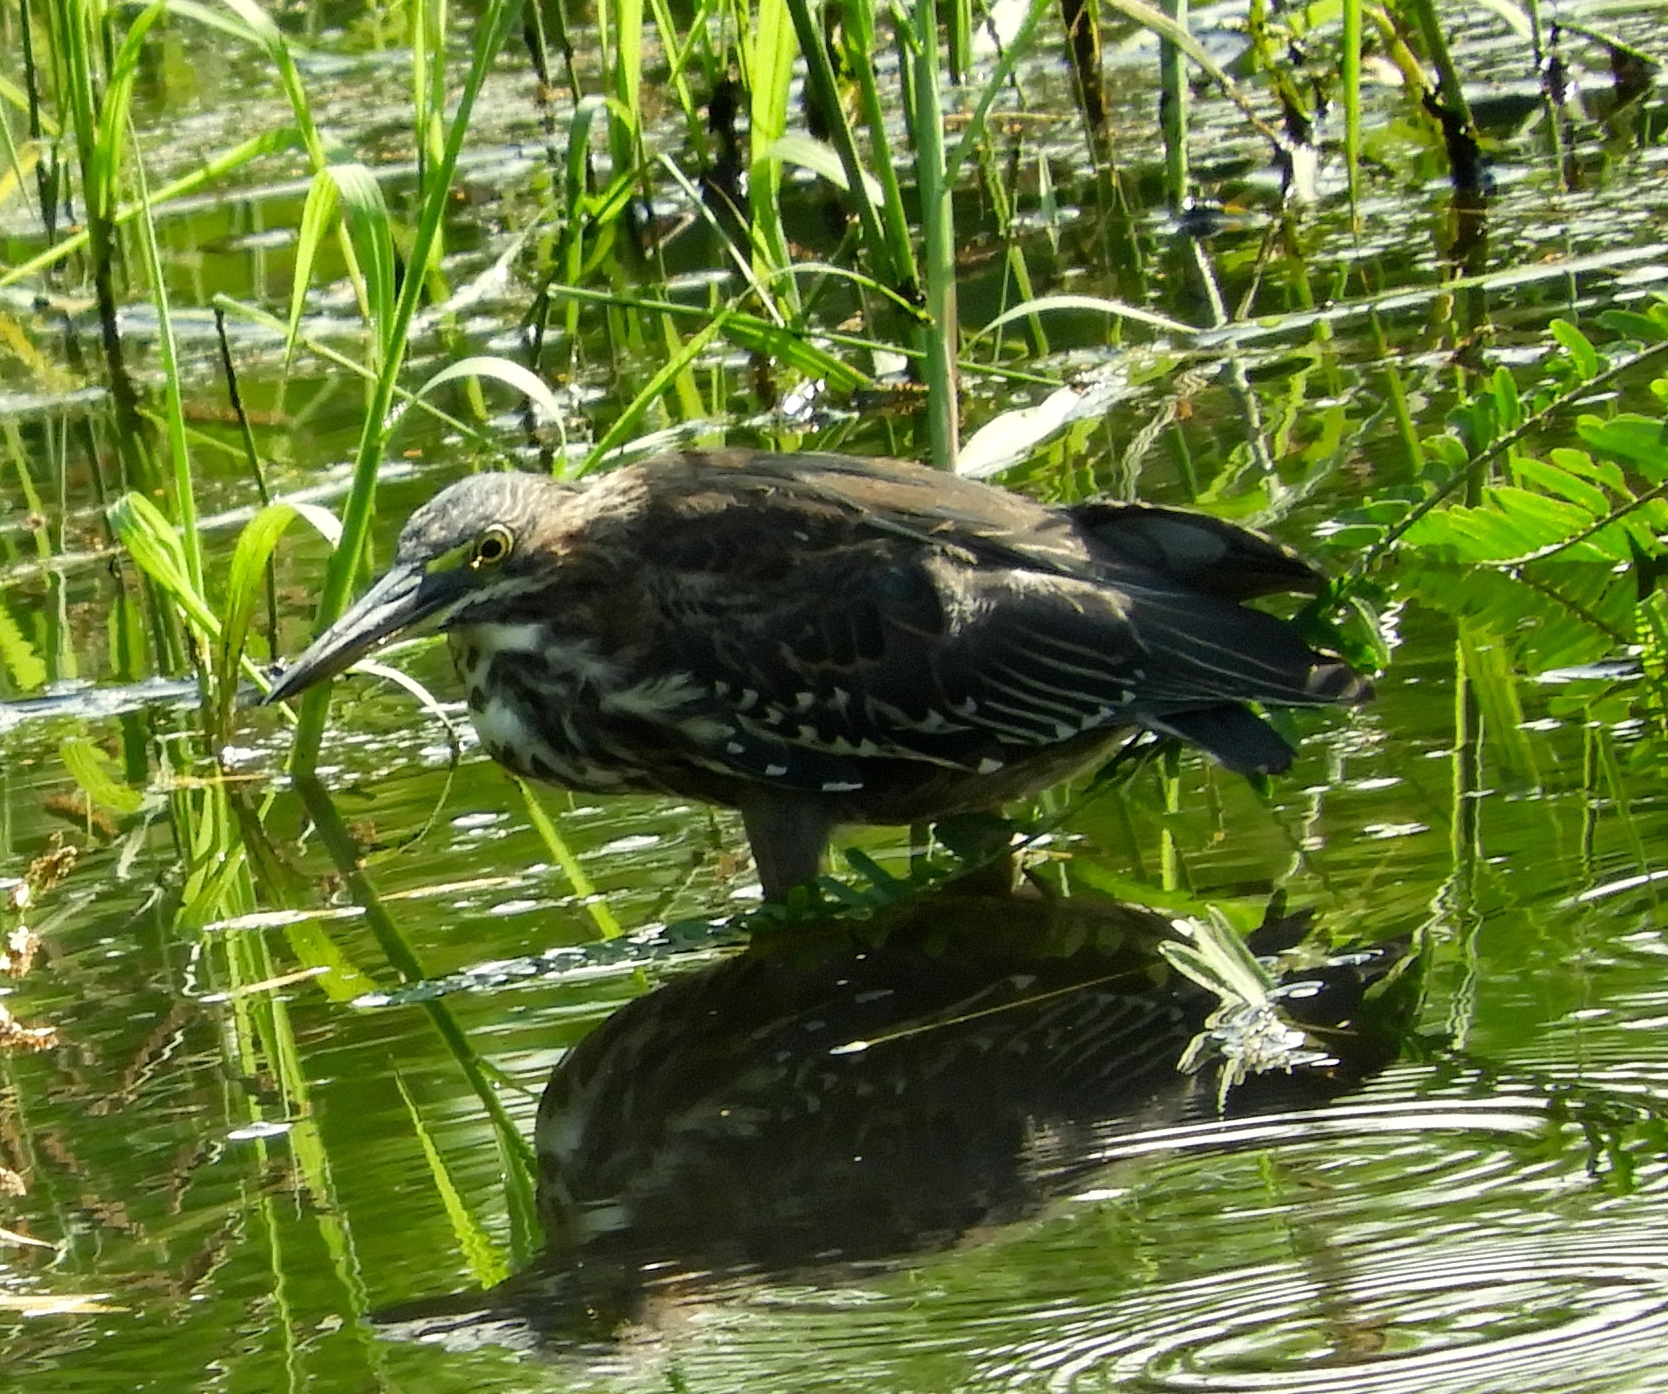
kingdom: Animalia
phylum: Chordata
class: Aves
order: Pelecaniformes
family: Ardeidae
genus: Butorides
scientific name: Butorides virescens
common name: Green heron
